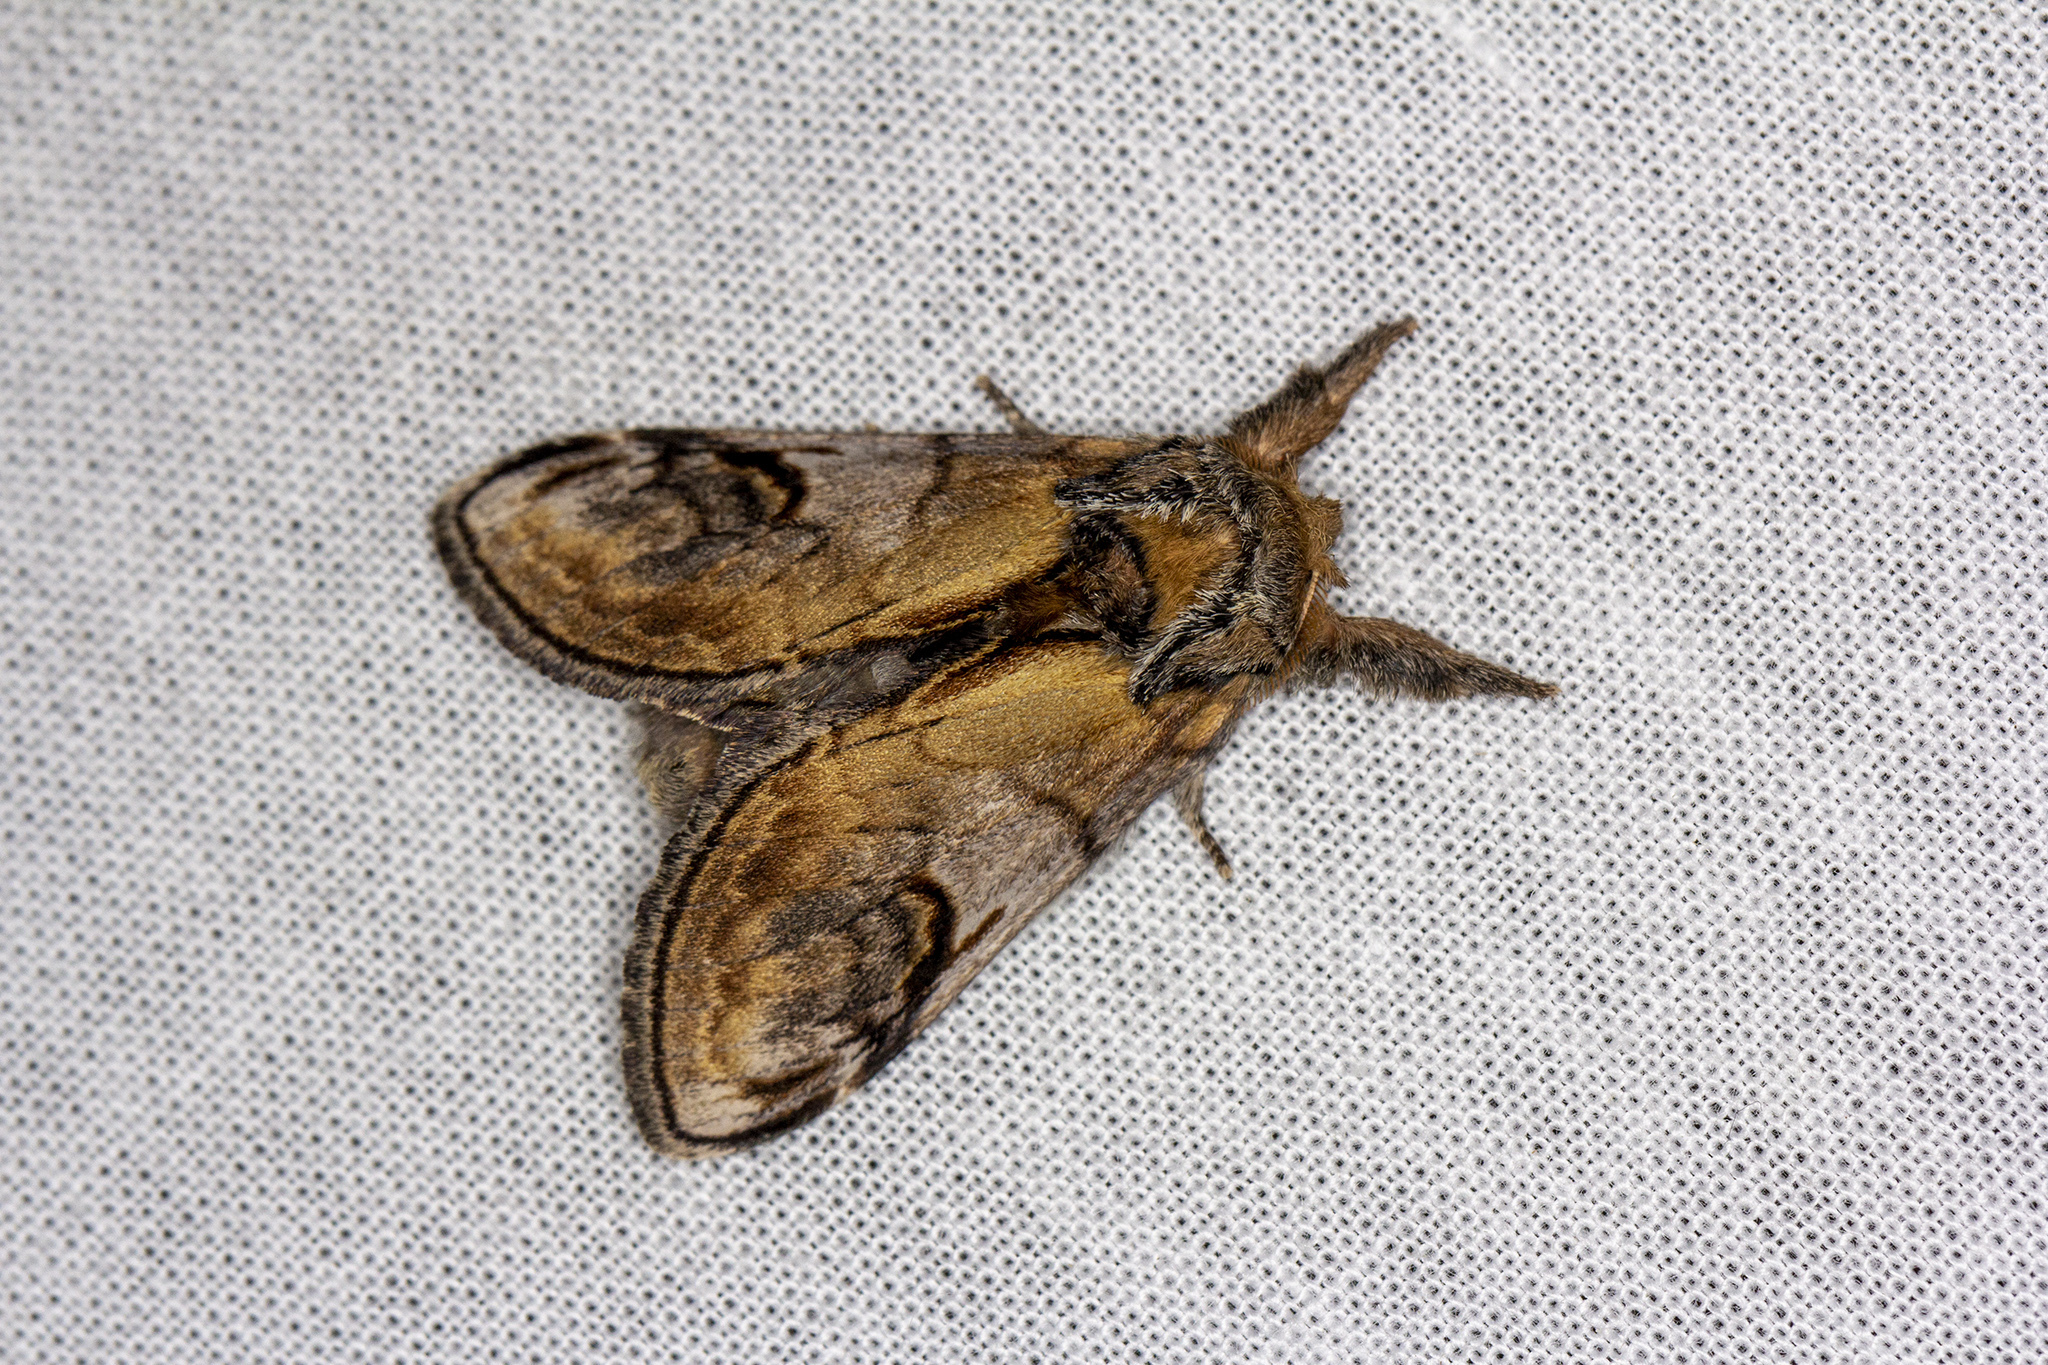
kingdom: Animalia
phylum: Arthropoda
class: Insecta
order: Lepidoptera
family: Notodontidae
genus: Notodonta
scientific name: Notodonta ziczac
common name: Pebble prominent
